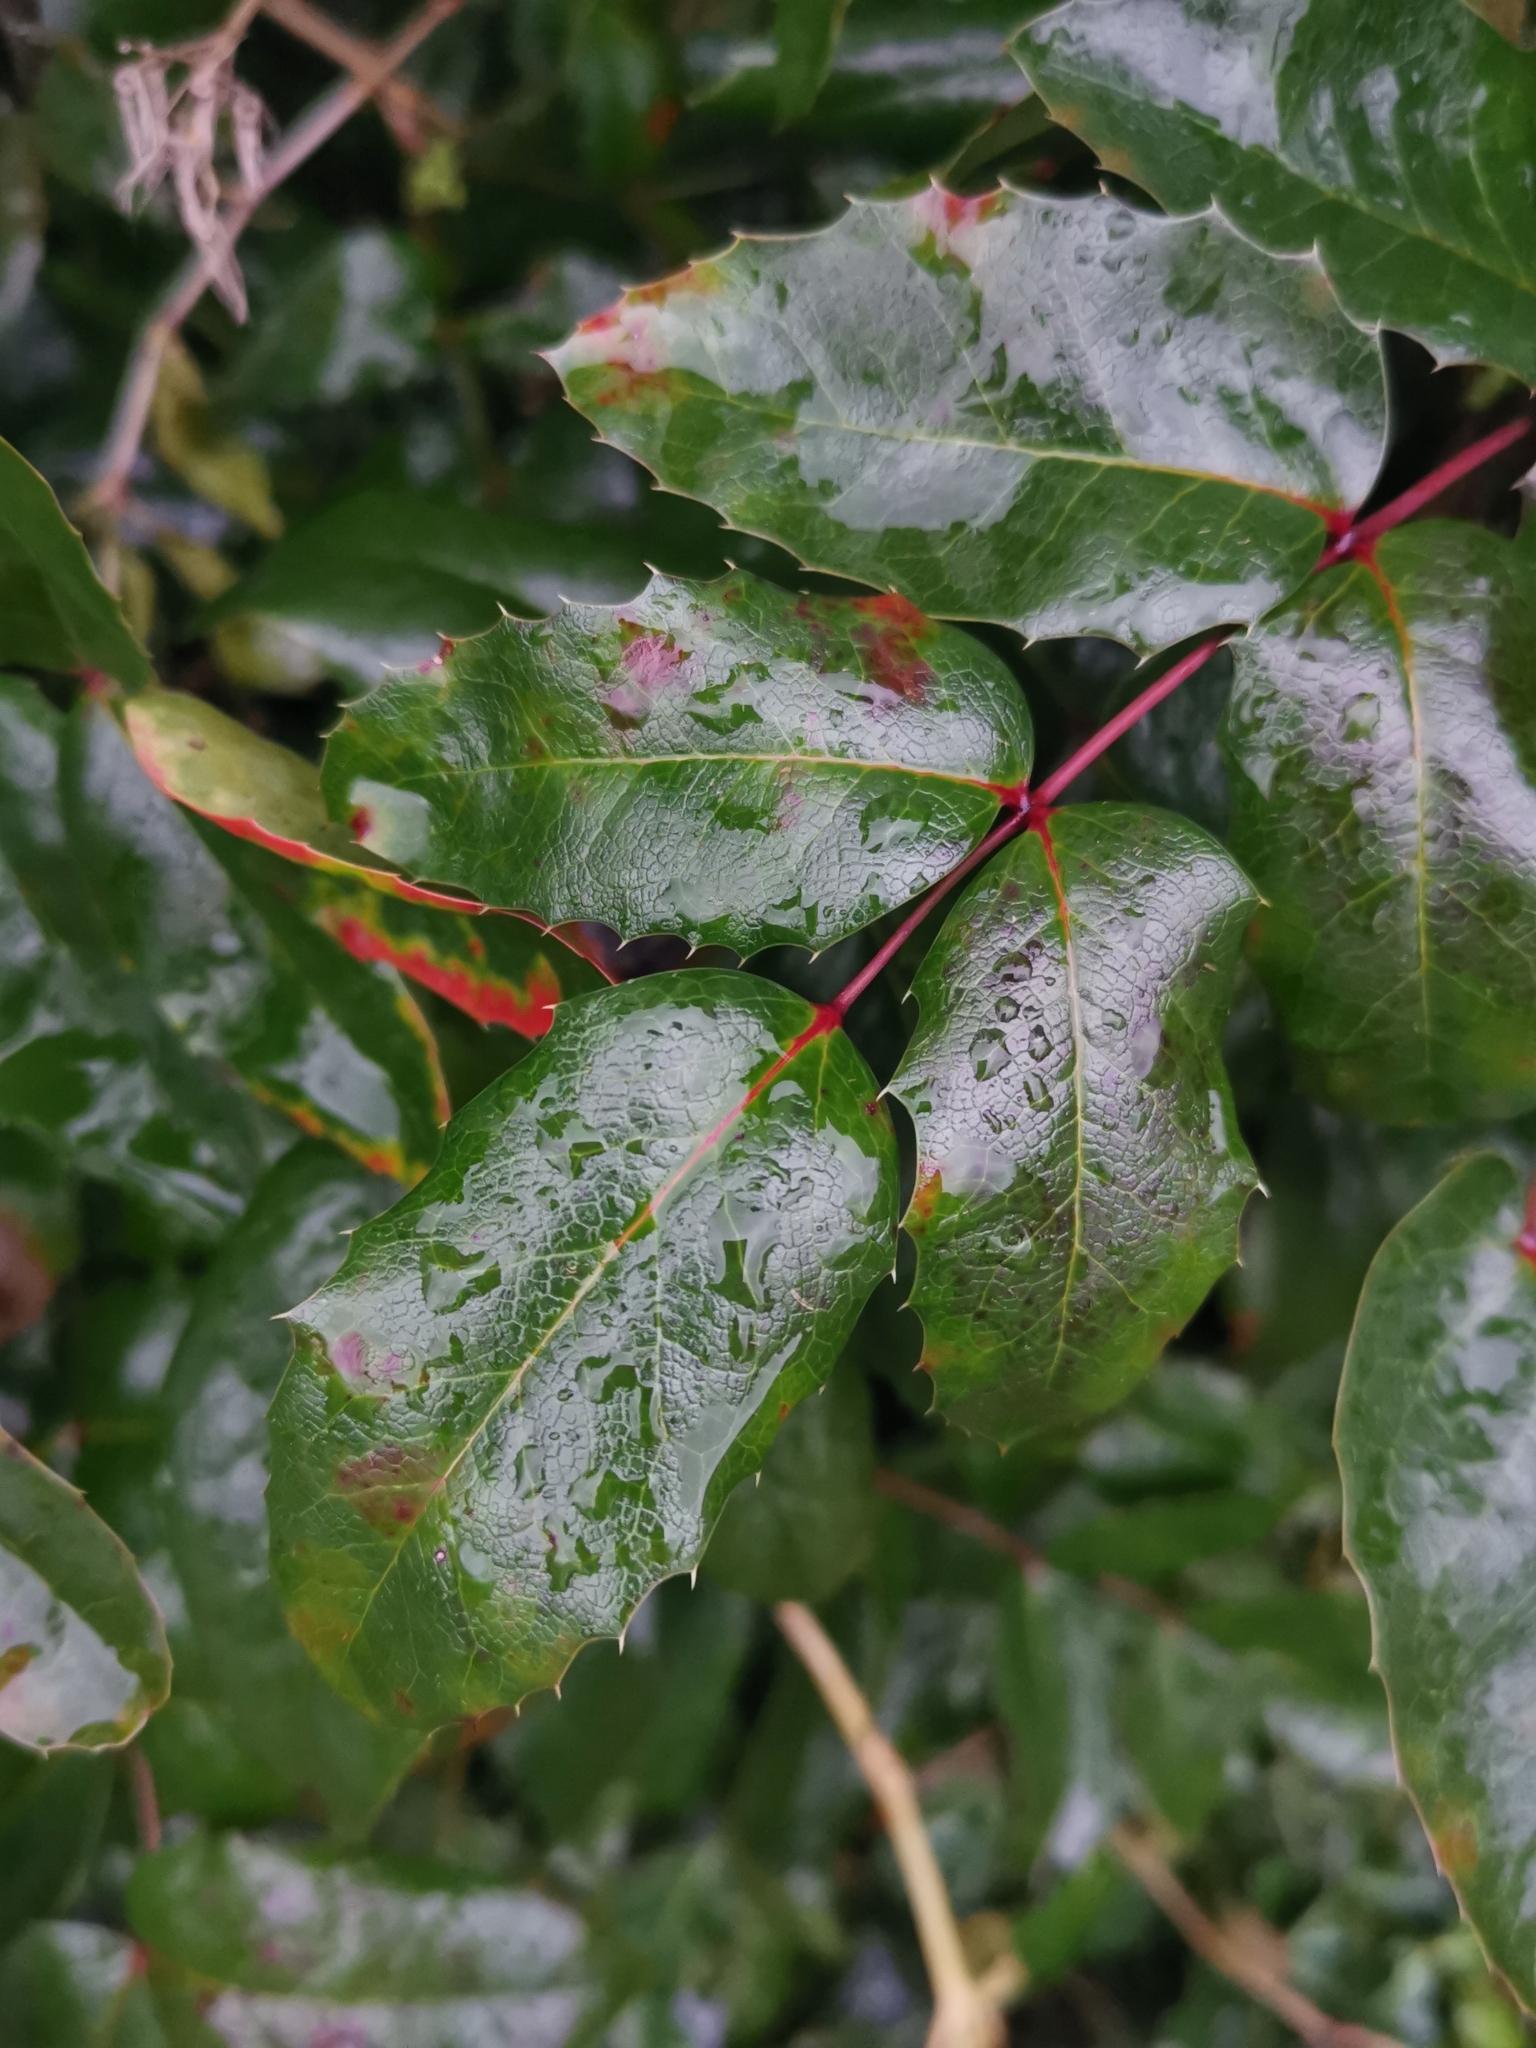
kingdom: Plantae
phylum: Tracheophyta
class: Magnoliopsida
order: Ranunculales
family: Berberidaceae
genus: Mahonia
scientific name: Mahonia aquifolium
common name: Oregon-grape
